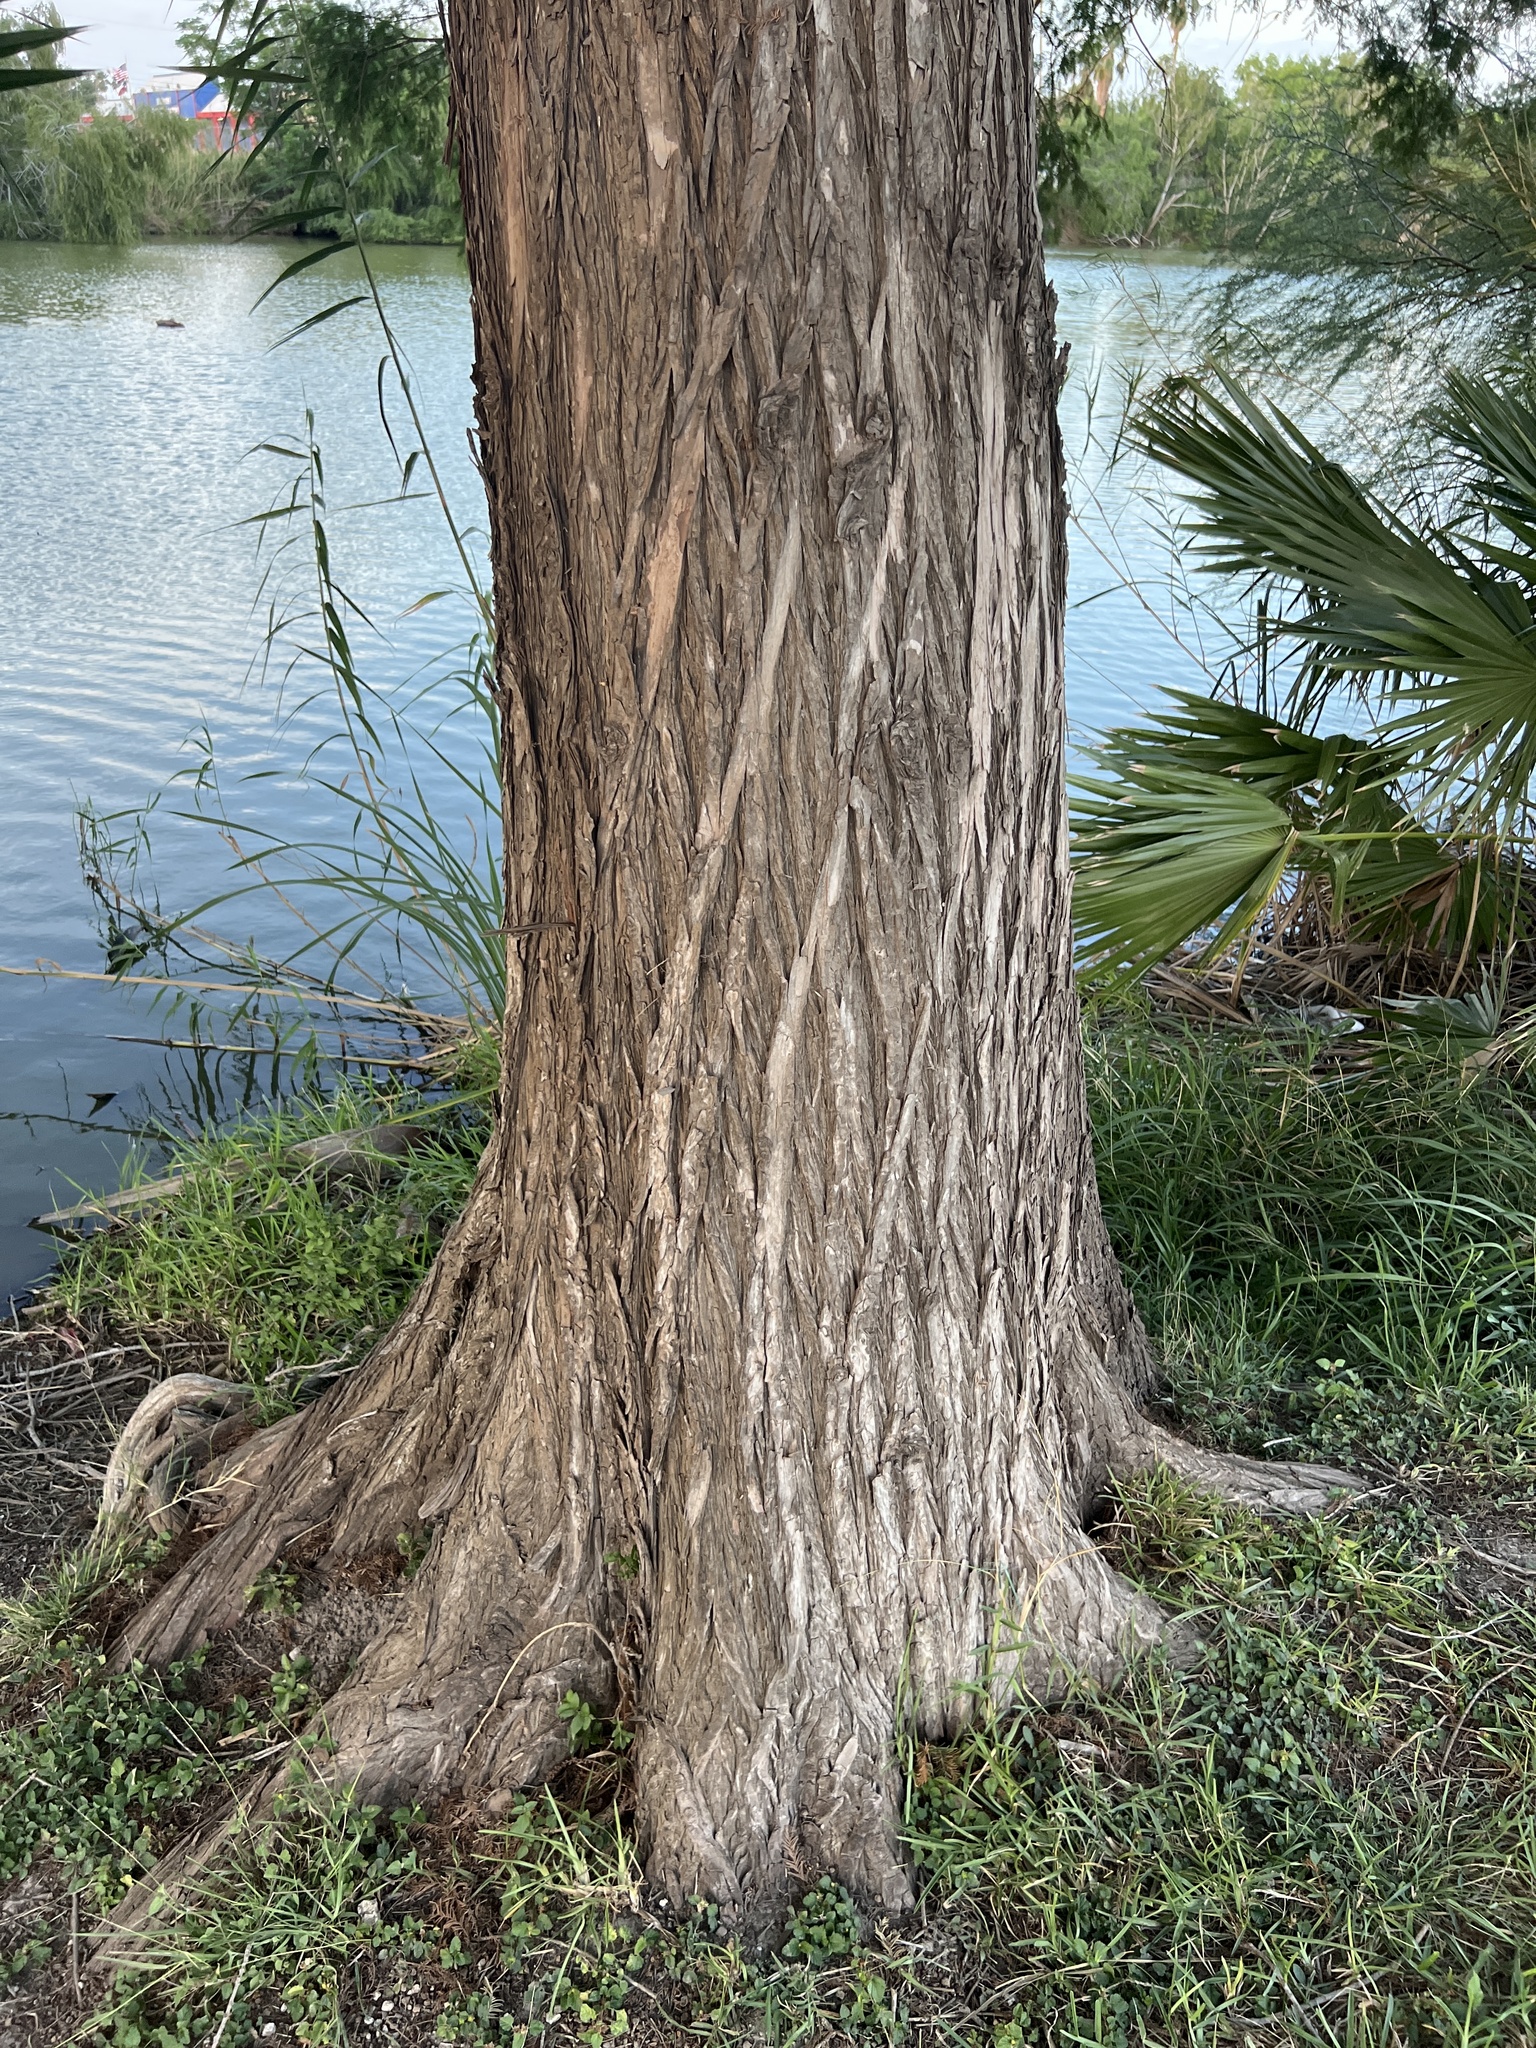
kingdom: Plantae
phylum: Tracheophyta
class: Pinopsida
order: Pinales
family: Cupressaceae
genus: Taxodium
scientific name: Taxodium mucronatum
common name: Montezume bald cypress
